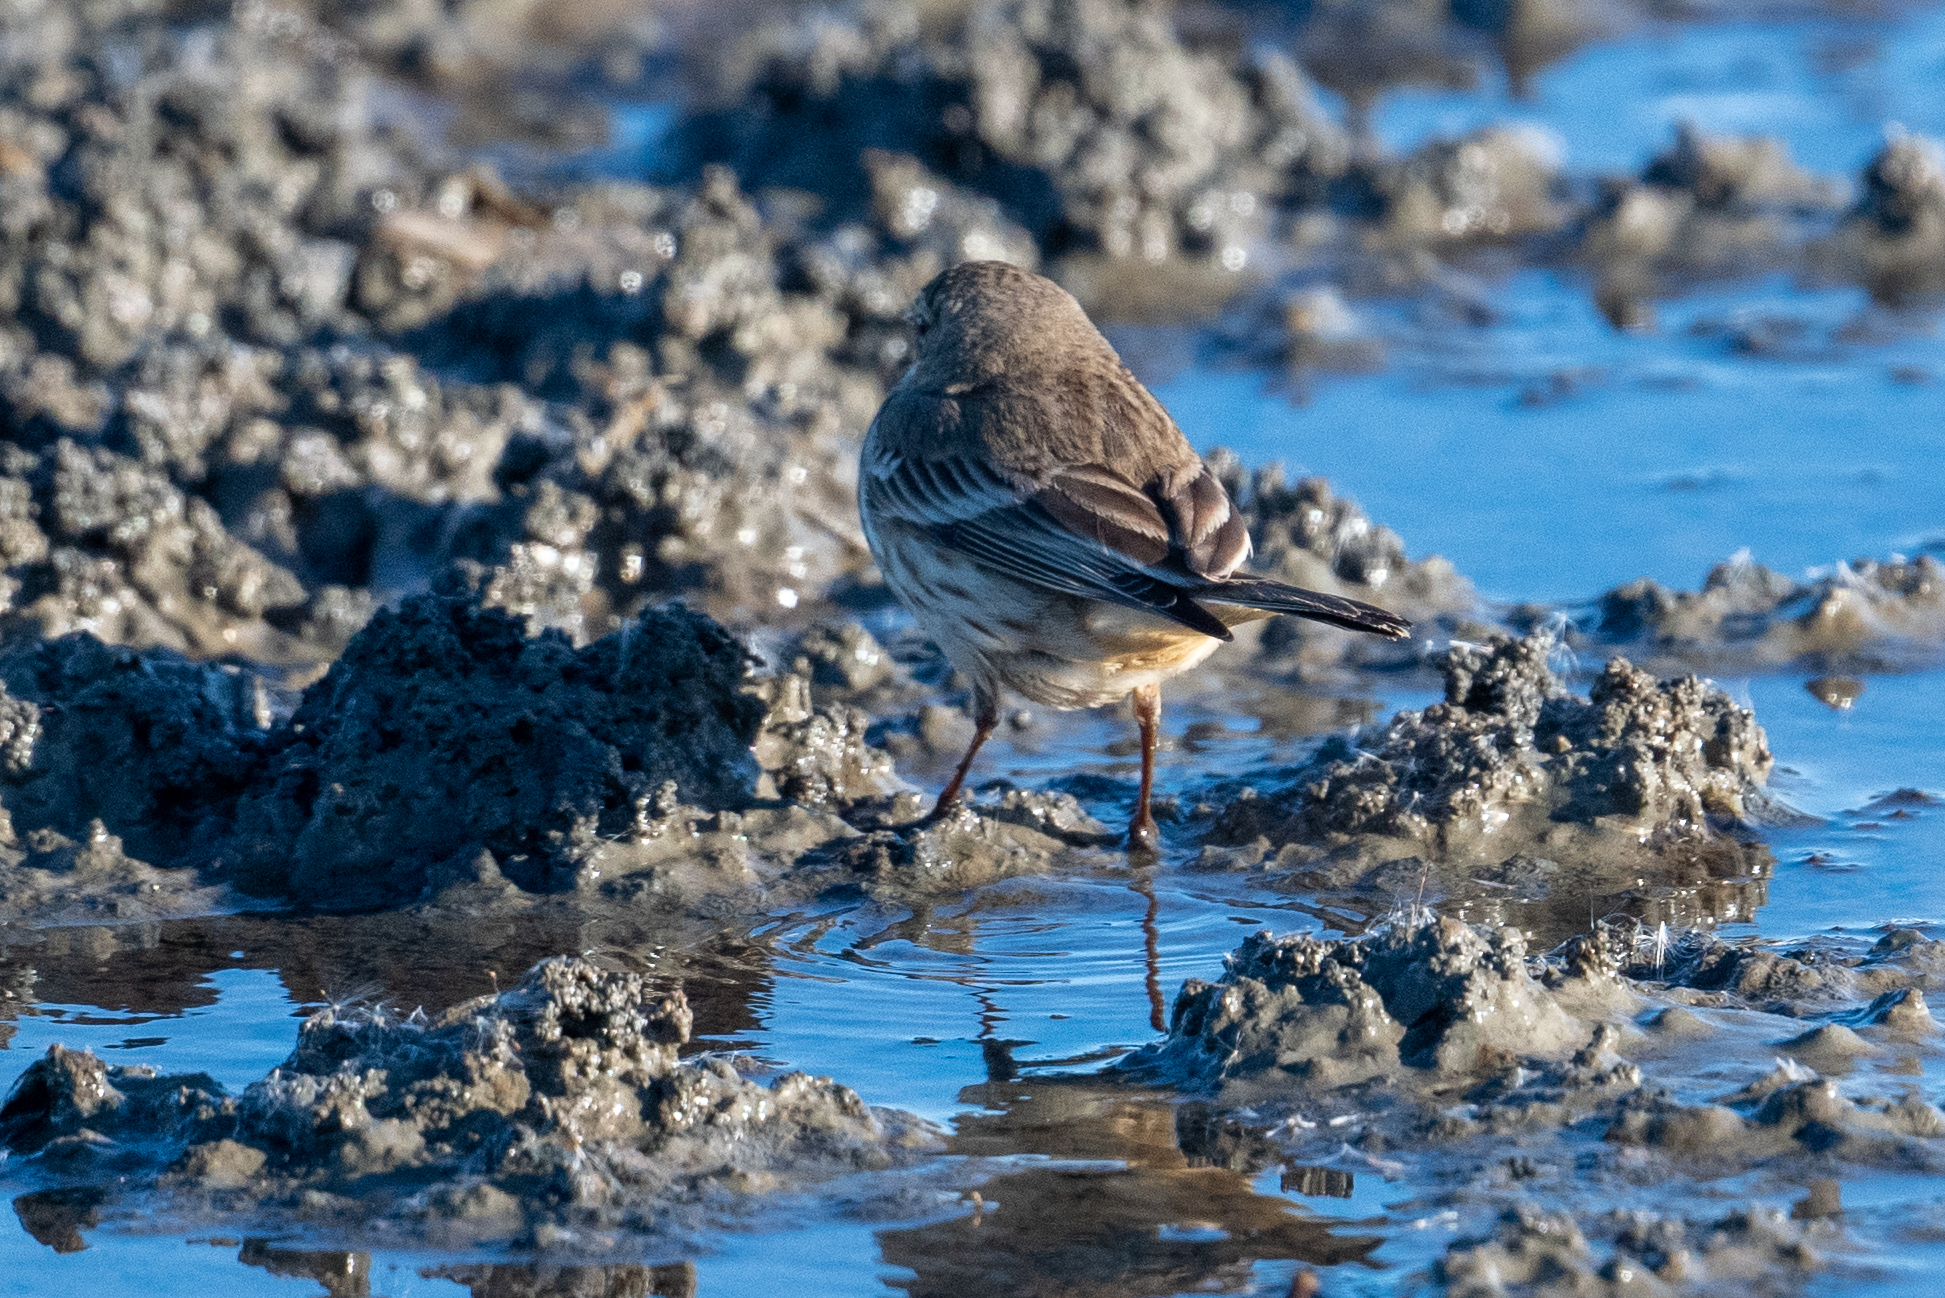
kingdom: Animalia
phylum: Chordata
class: Aves
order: Passeriformes
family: Motacillidae
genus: Anthus
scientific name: Anthus rubescens
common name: Buff-bellied pipit
